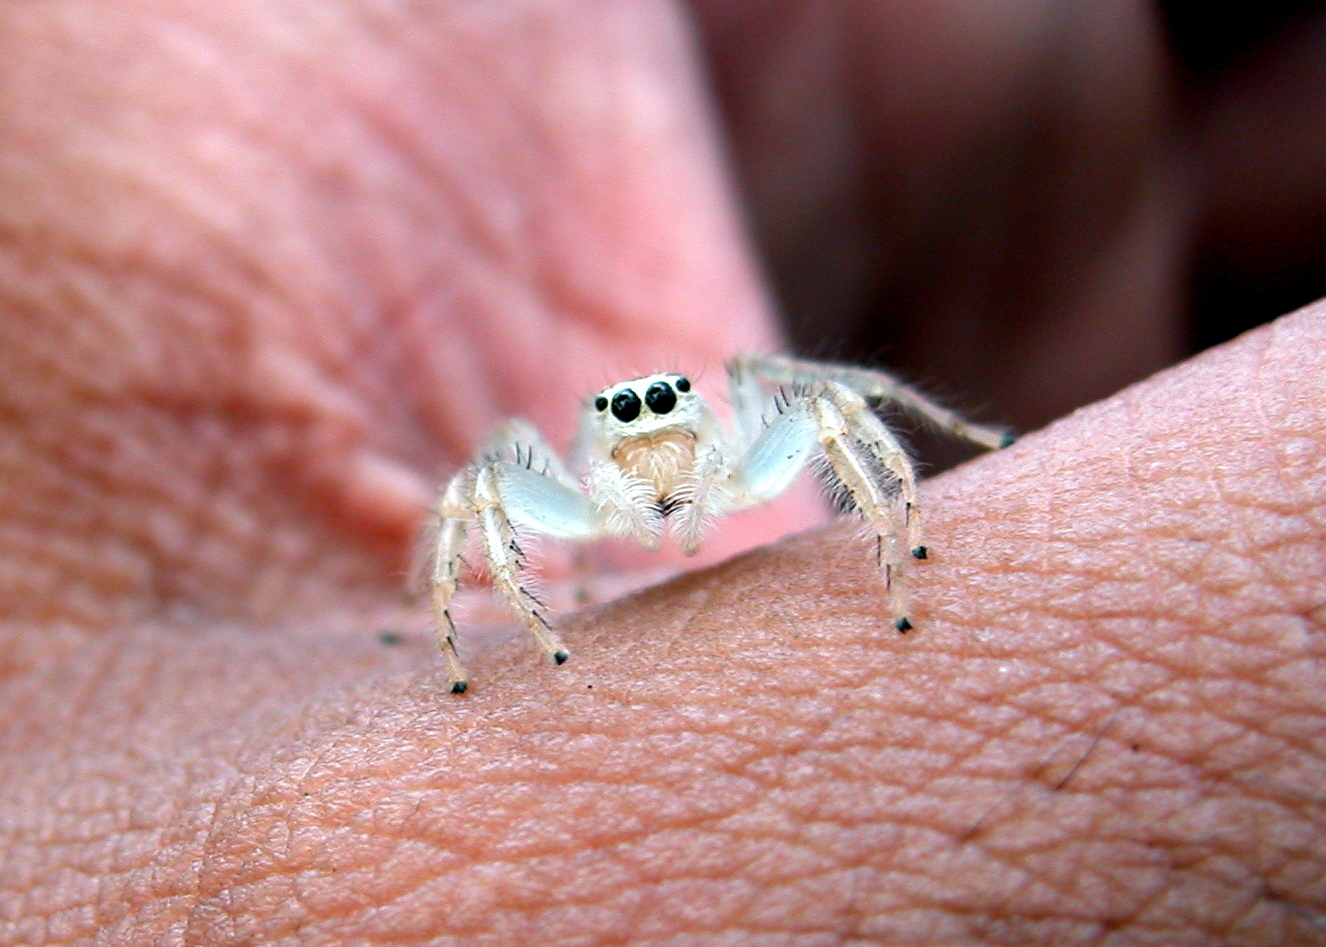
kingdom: Animalia
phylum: Arthropoda
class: Arachnida
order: Araneae
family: Salticidae
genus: Telamonia
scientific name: Telamonia dimidiata
